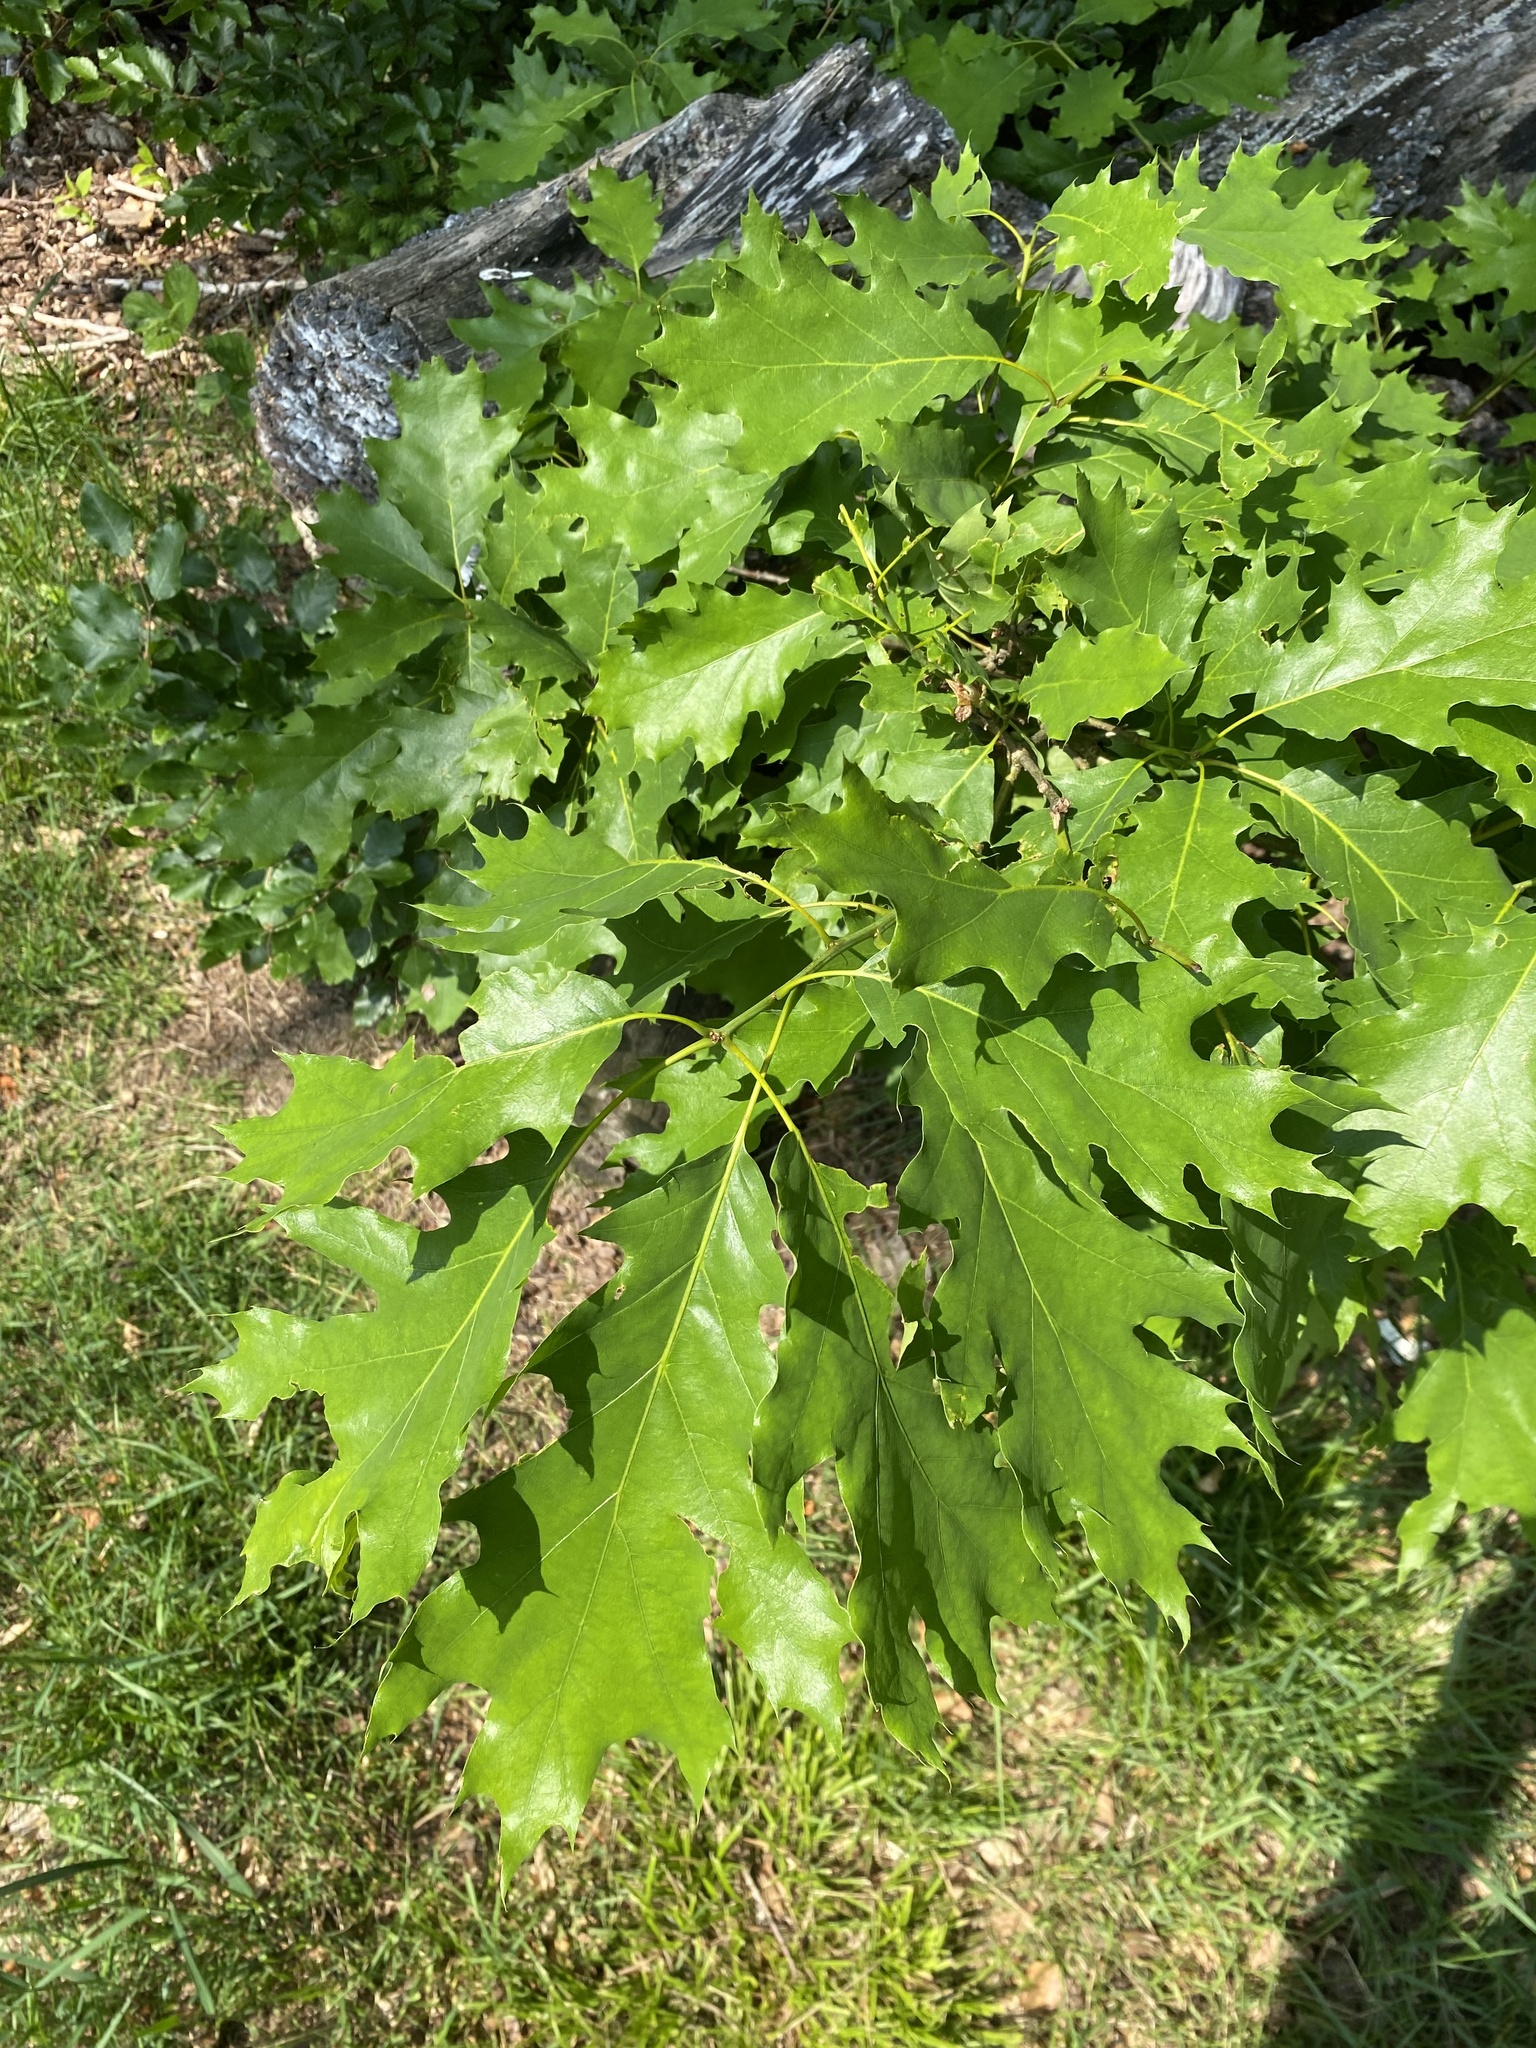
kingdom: Plantae
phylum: Tracheophyta
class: Magnoliopsida
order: Fagales
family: Fagaceae
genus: Quercus
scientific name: Quercus rubra
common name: Red oak
